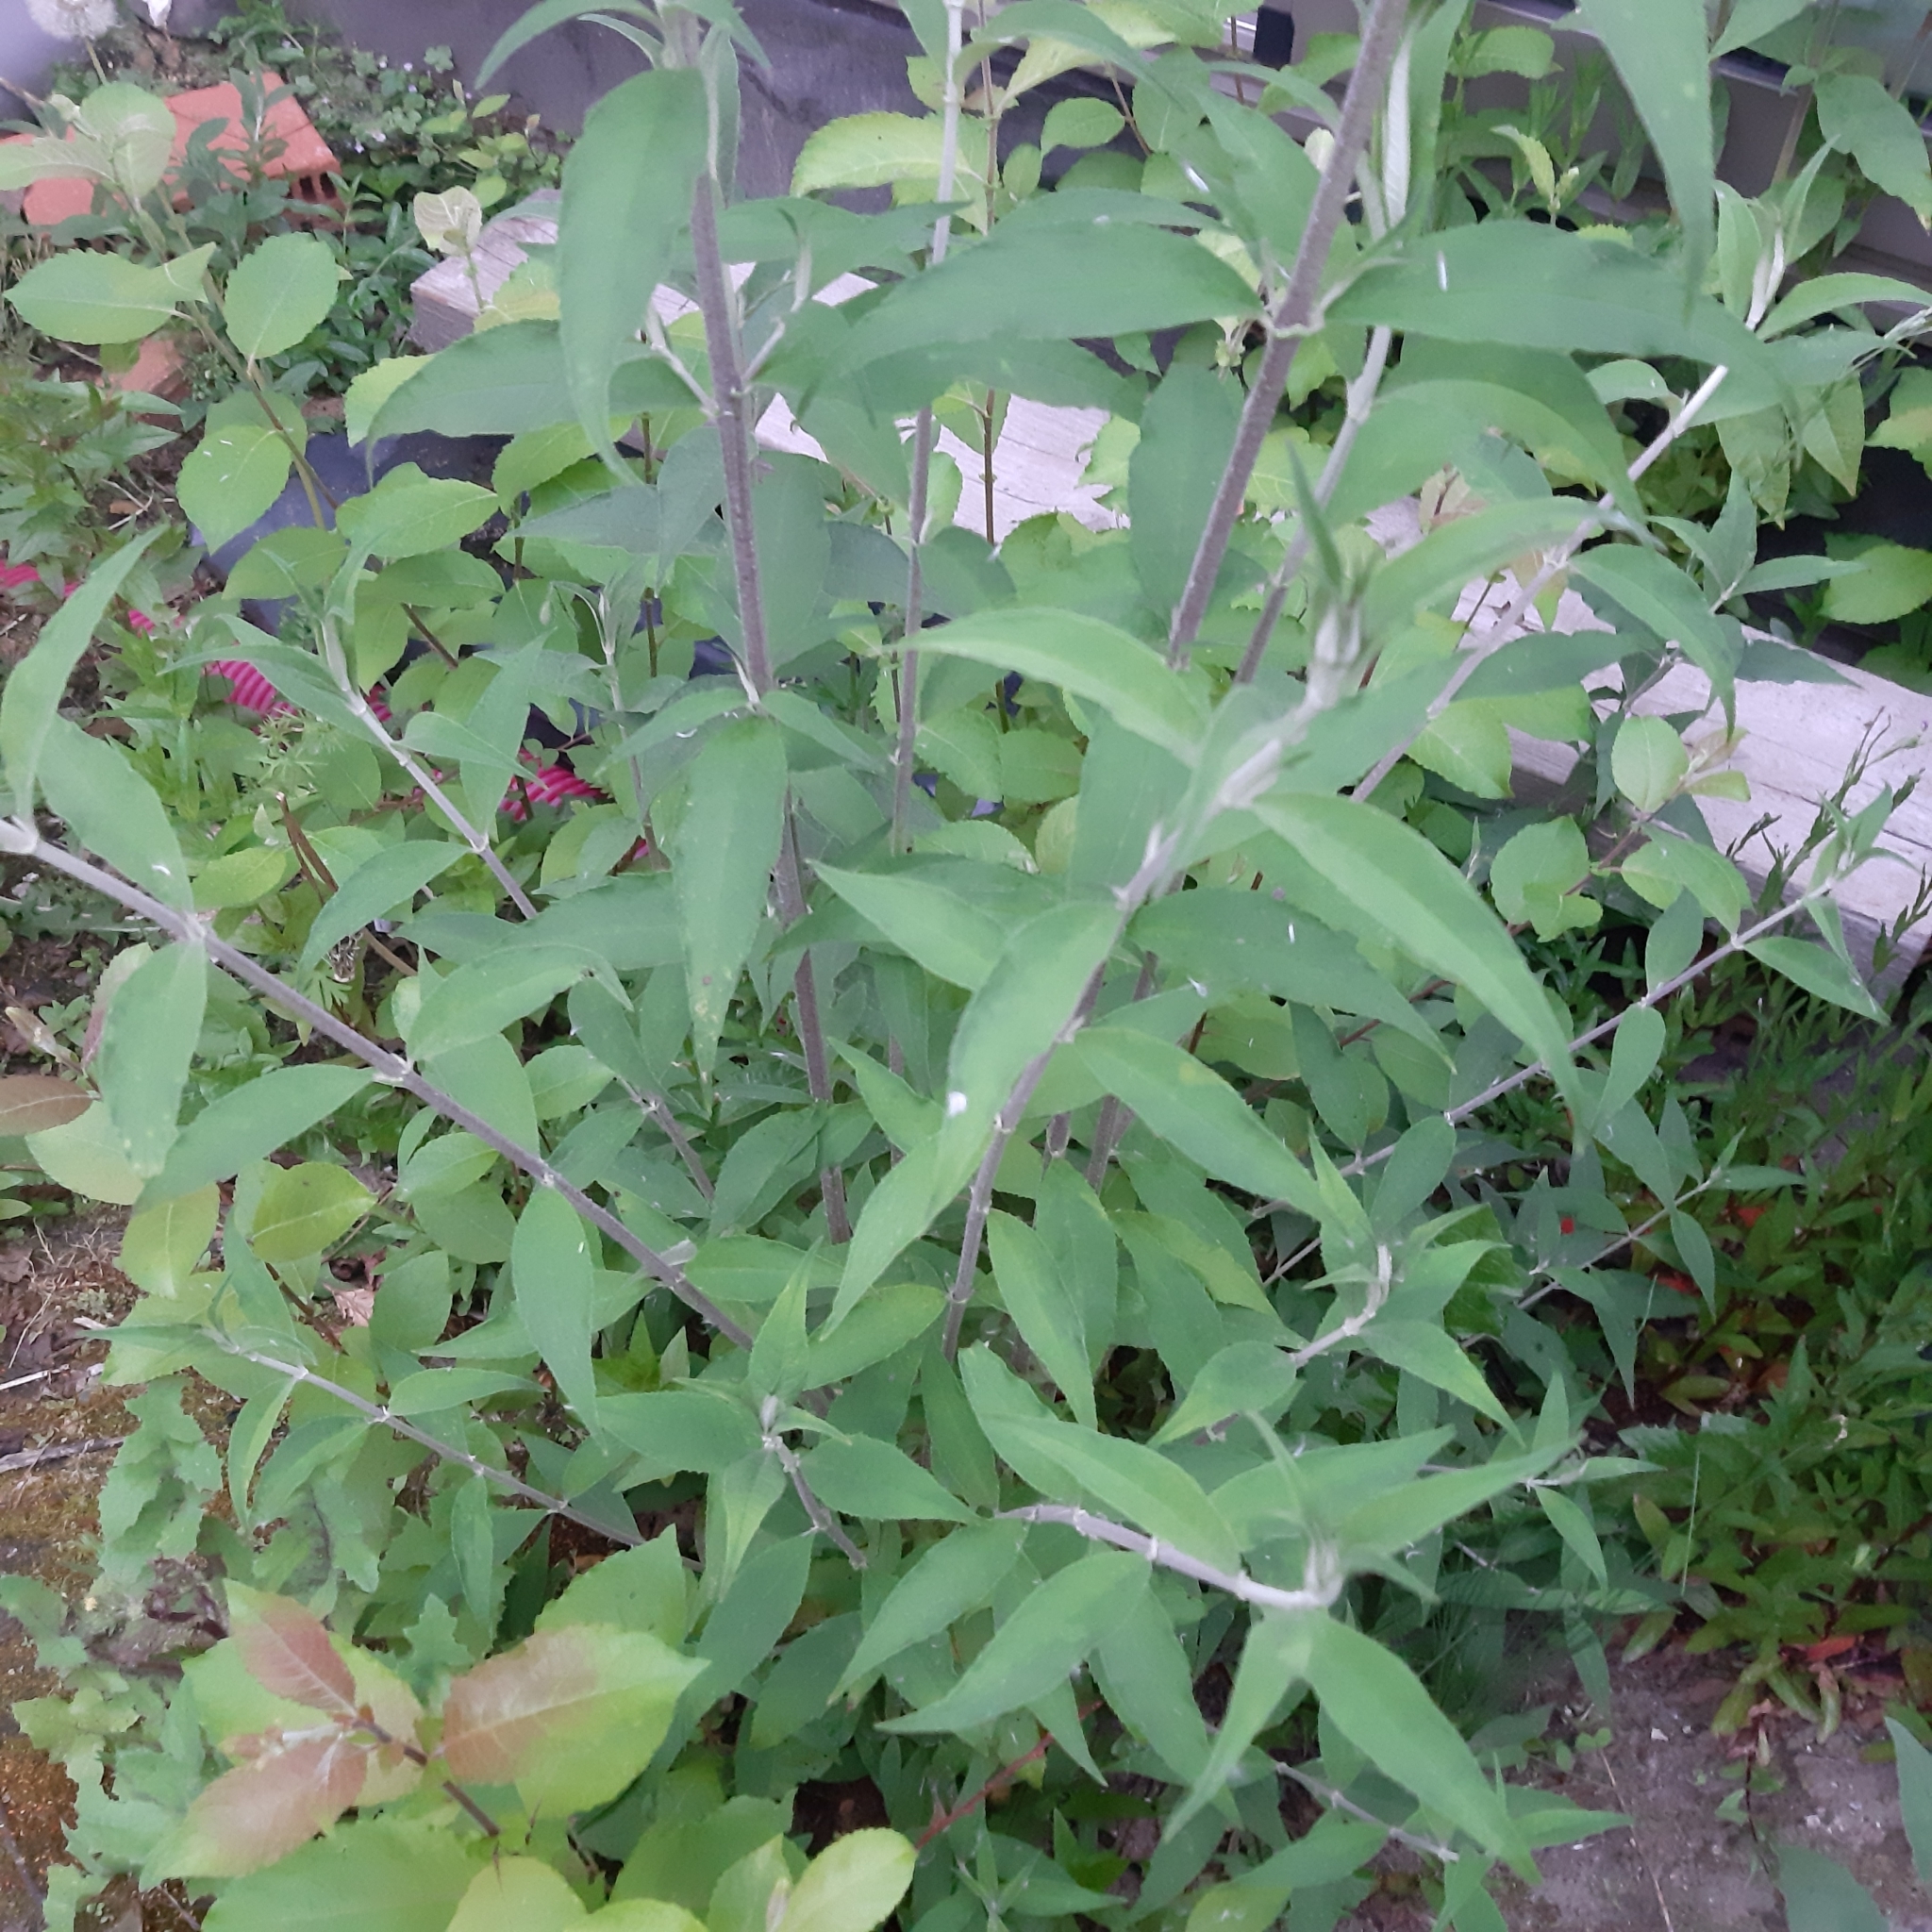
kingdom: Plantae
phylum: Tracheophyta
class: Magnoliopsida
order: Lamiales
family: Scrophulariaceae
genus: Buddleja
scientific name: Buddleja davidii
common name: Butterfly-bush
